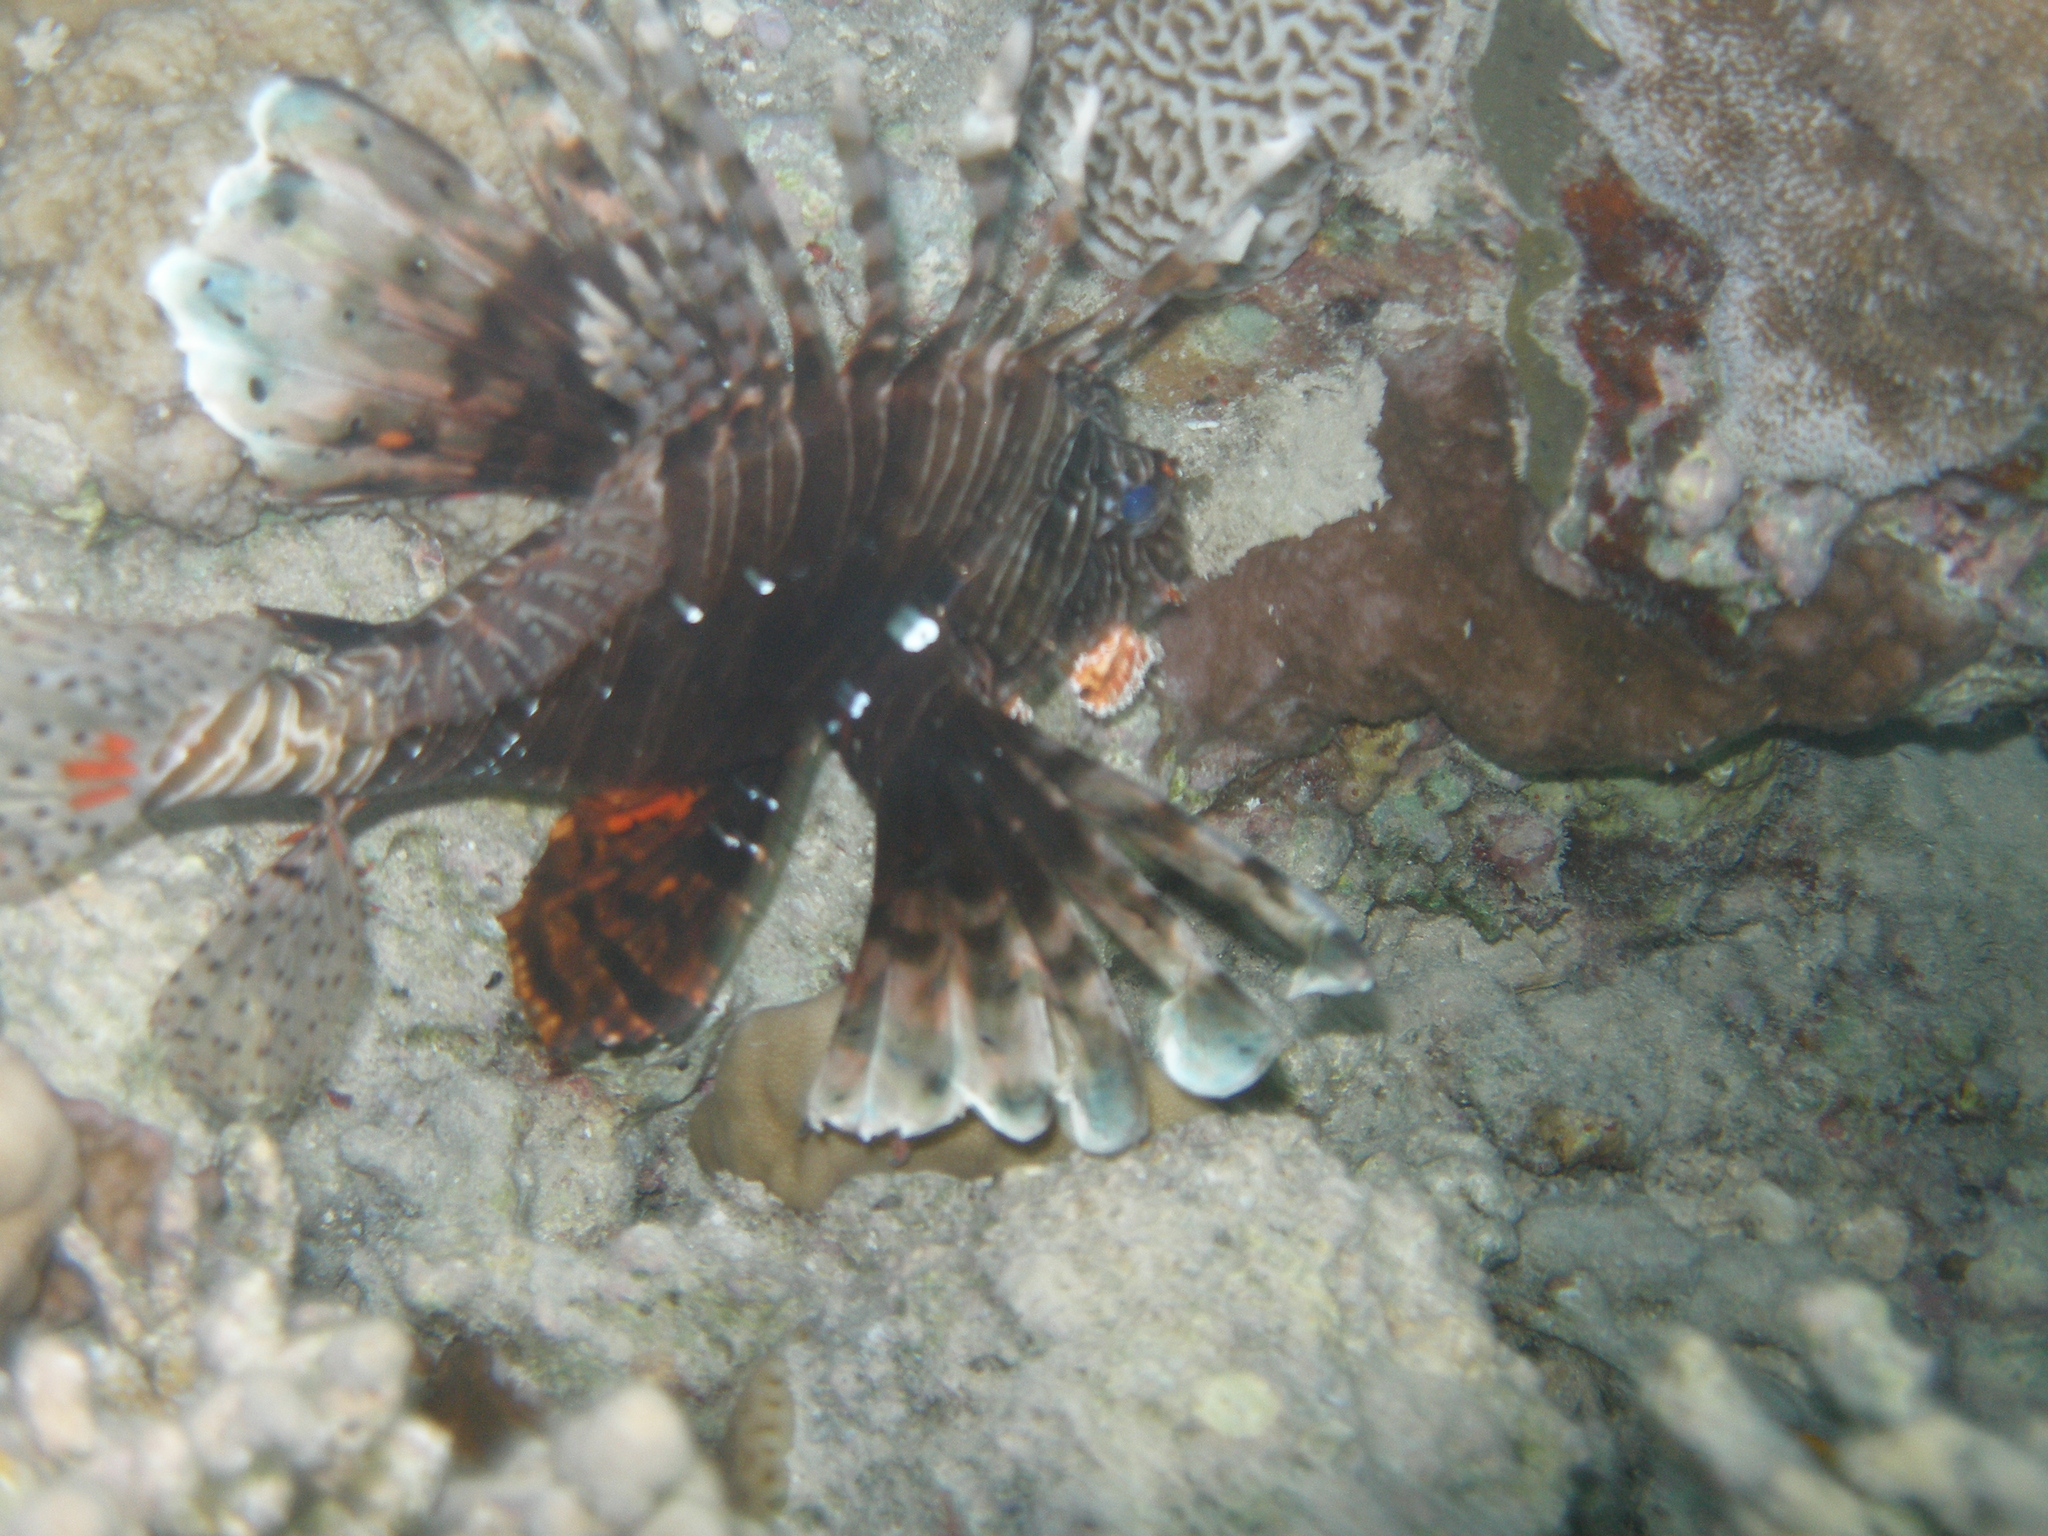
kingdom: Animalia
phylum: Chordata
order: Scorpaeniformes
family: Scorpaenidae
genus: Pterois
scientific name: Pterois miles
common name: Devil firefish
